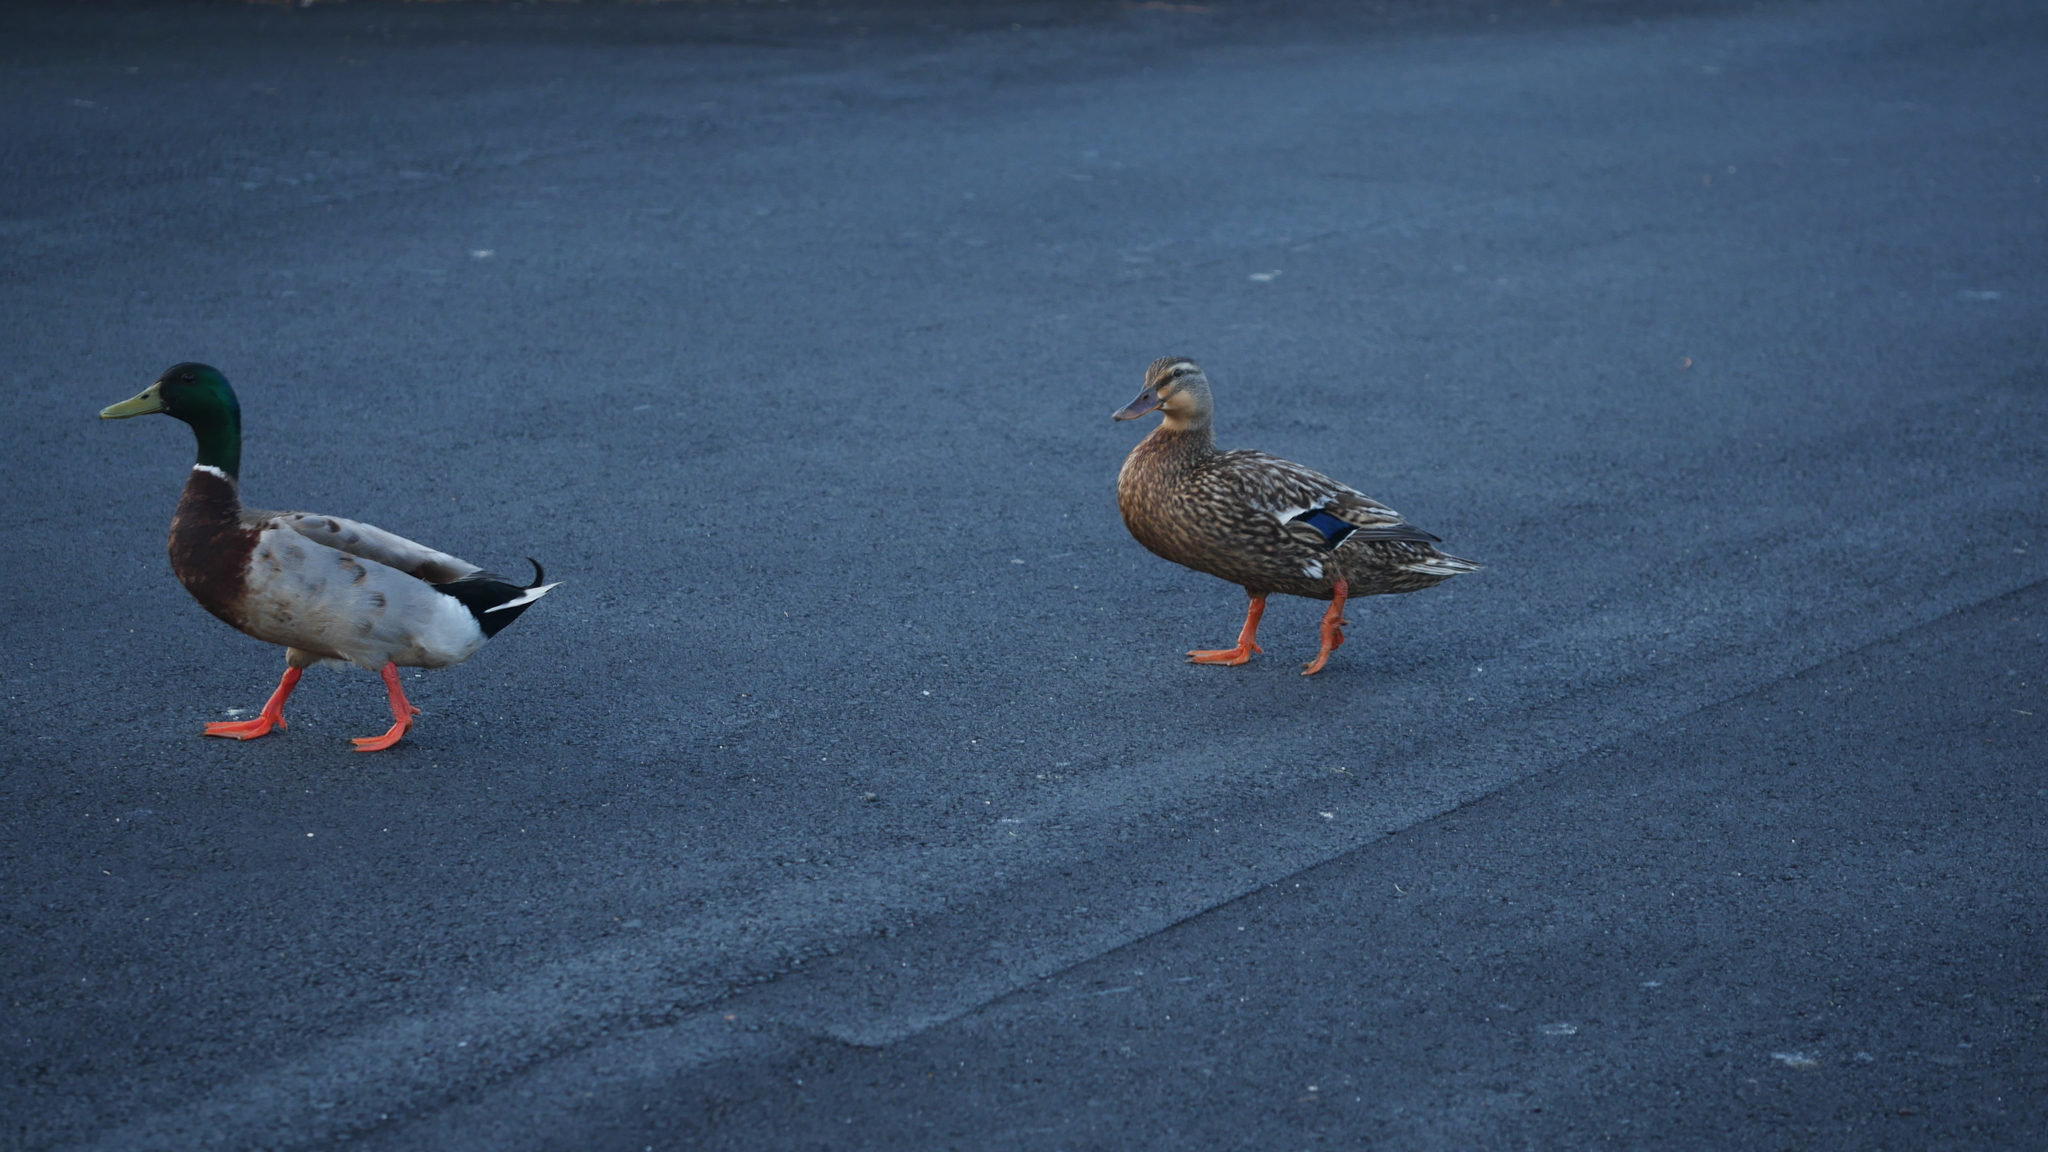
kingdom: Animalia
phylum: Chordata
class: Aves
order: Anseriformes
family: Anatidae
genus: Anas
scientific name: Anas platyrhynchos
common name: Mallard
